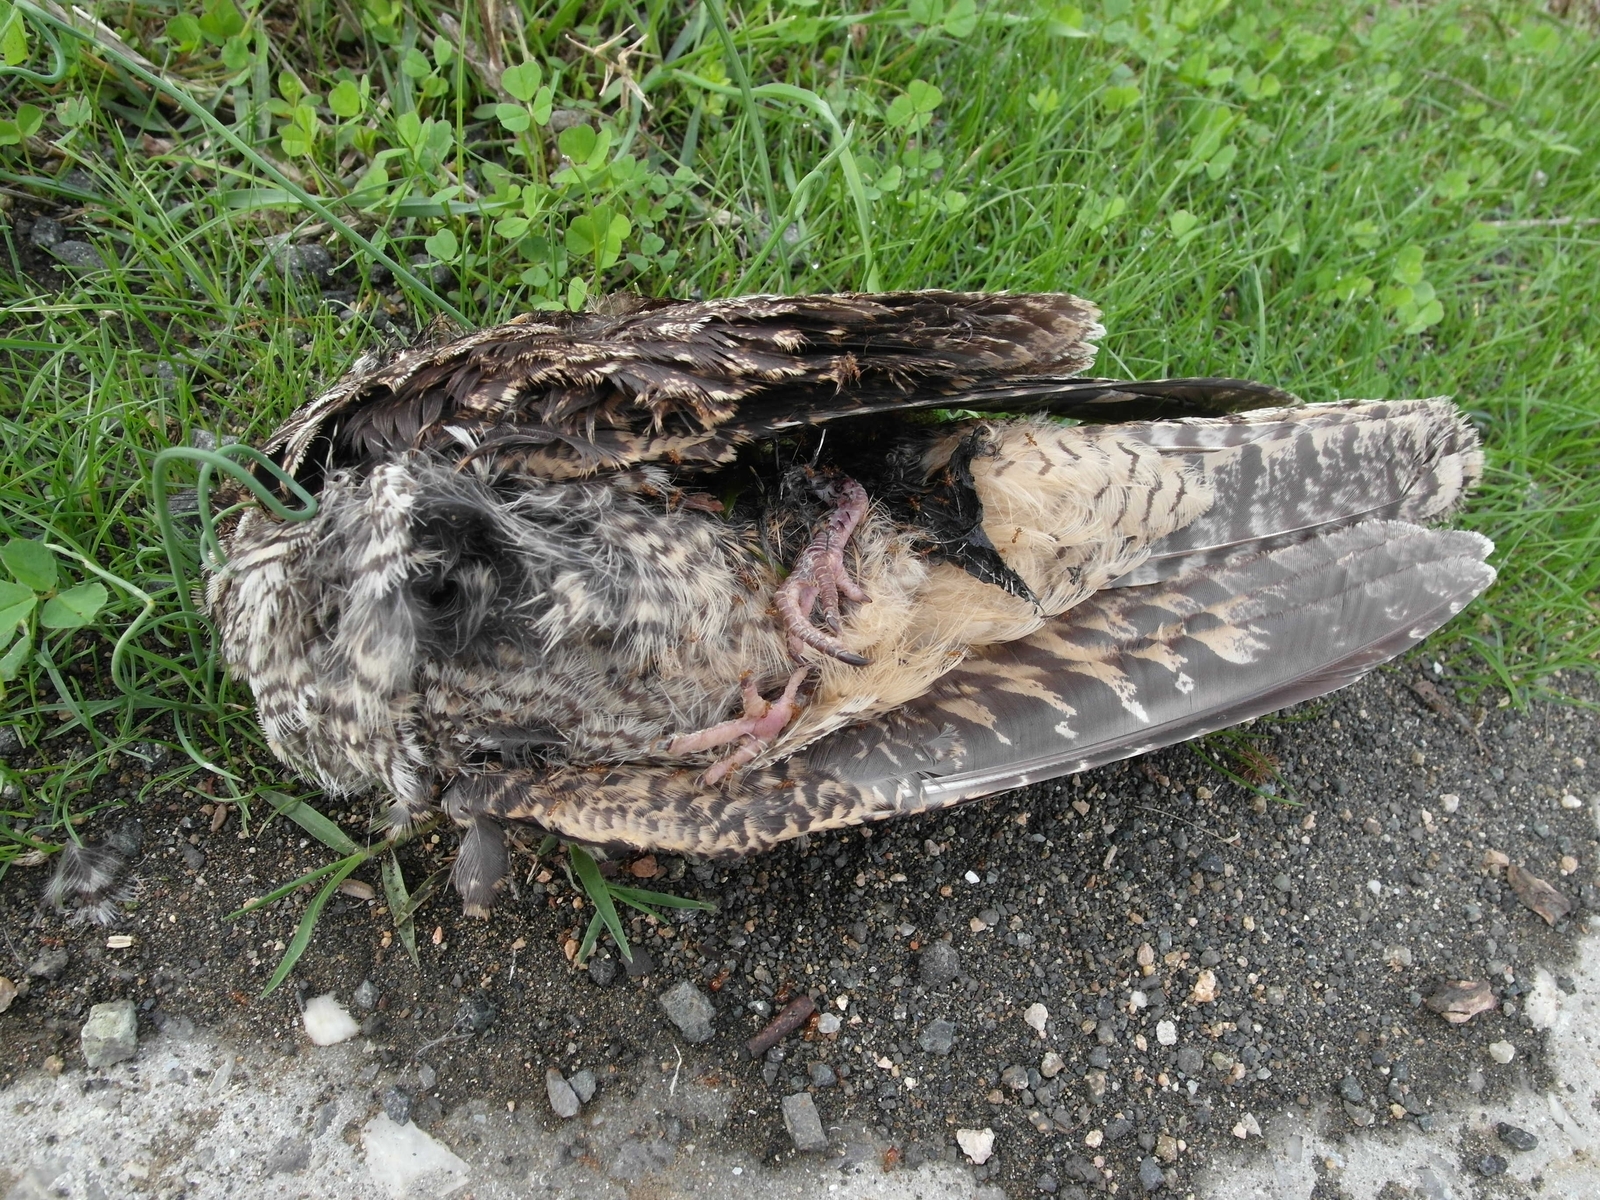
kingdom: Animalia
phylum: Chordata
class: Aves
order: Caprimulgiformes
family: Caprimulgidae
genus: Caprimulgus
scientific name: Caprimulgus europaeus
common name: European nightjar
